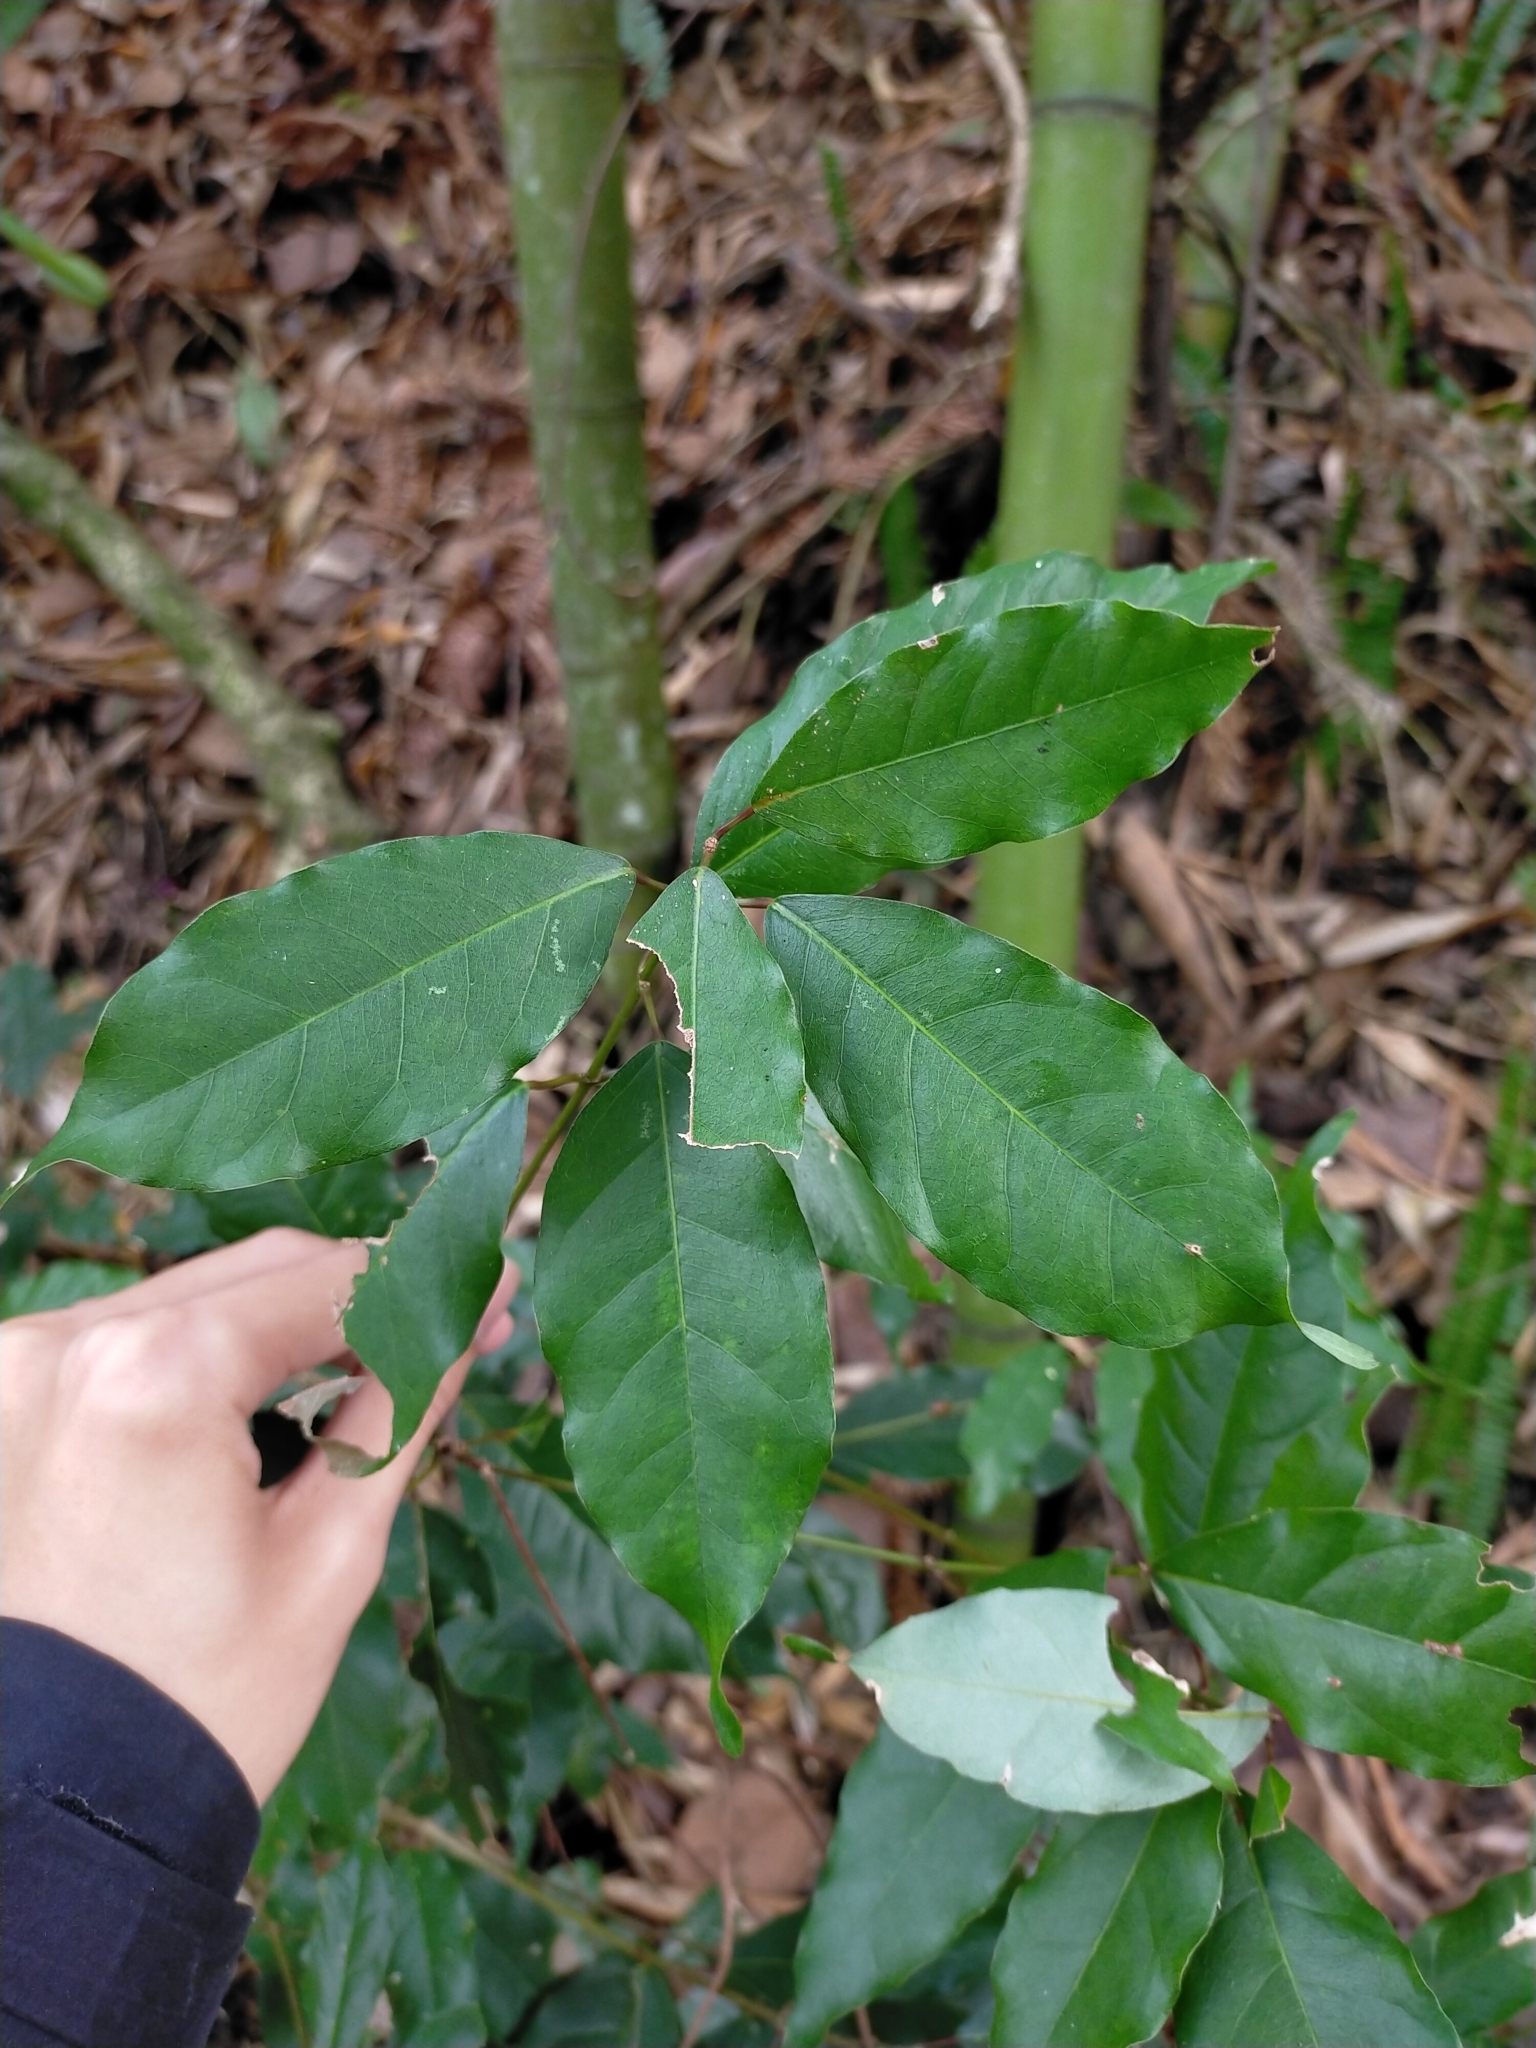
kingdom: Plantae
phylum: Tracheophyta
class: Magnoliopsida
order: Sapindales
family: Sapindaceae
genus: Acer
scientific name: Acer oblongum
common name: Himalayan maple
